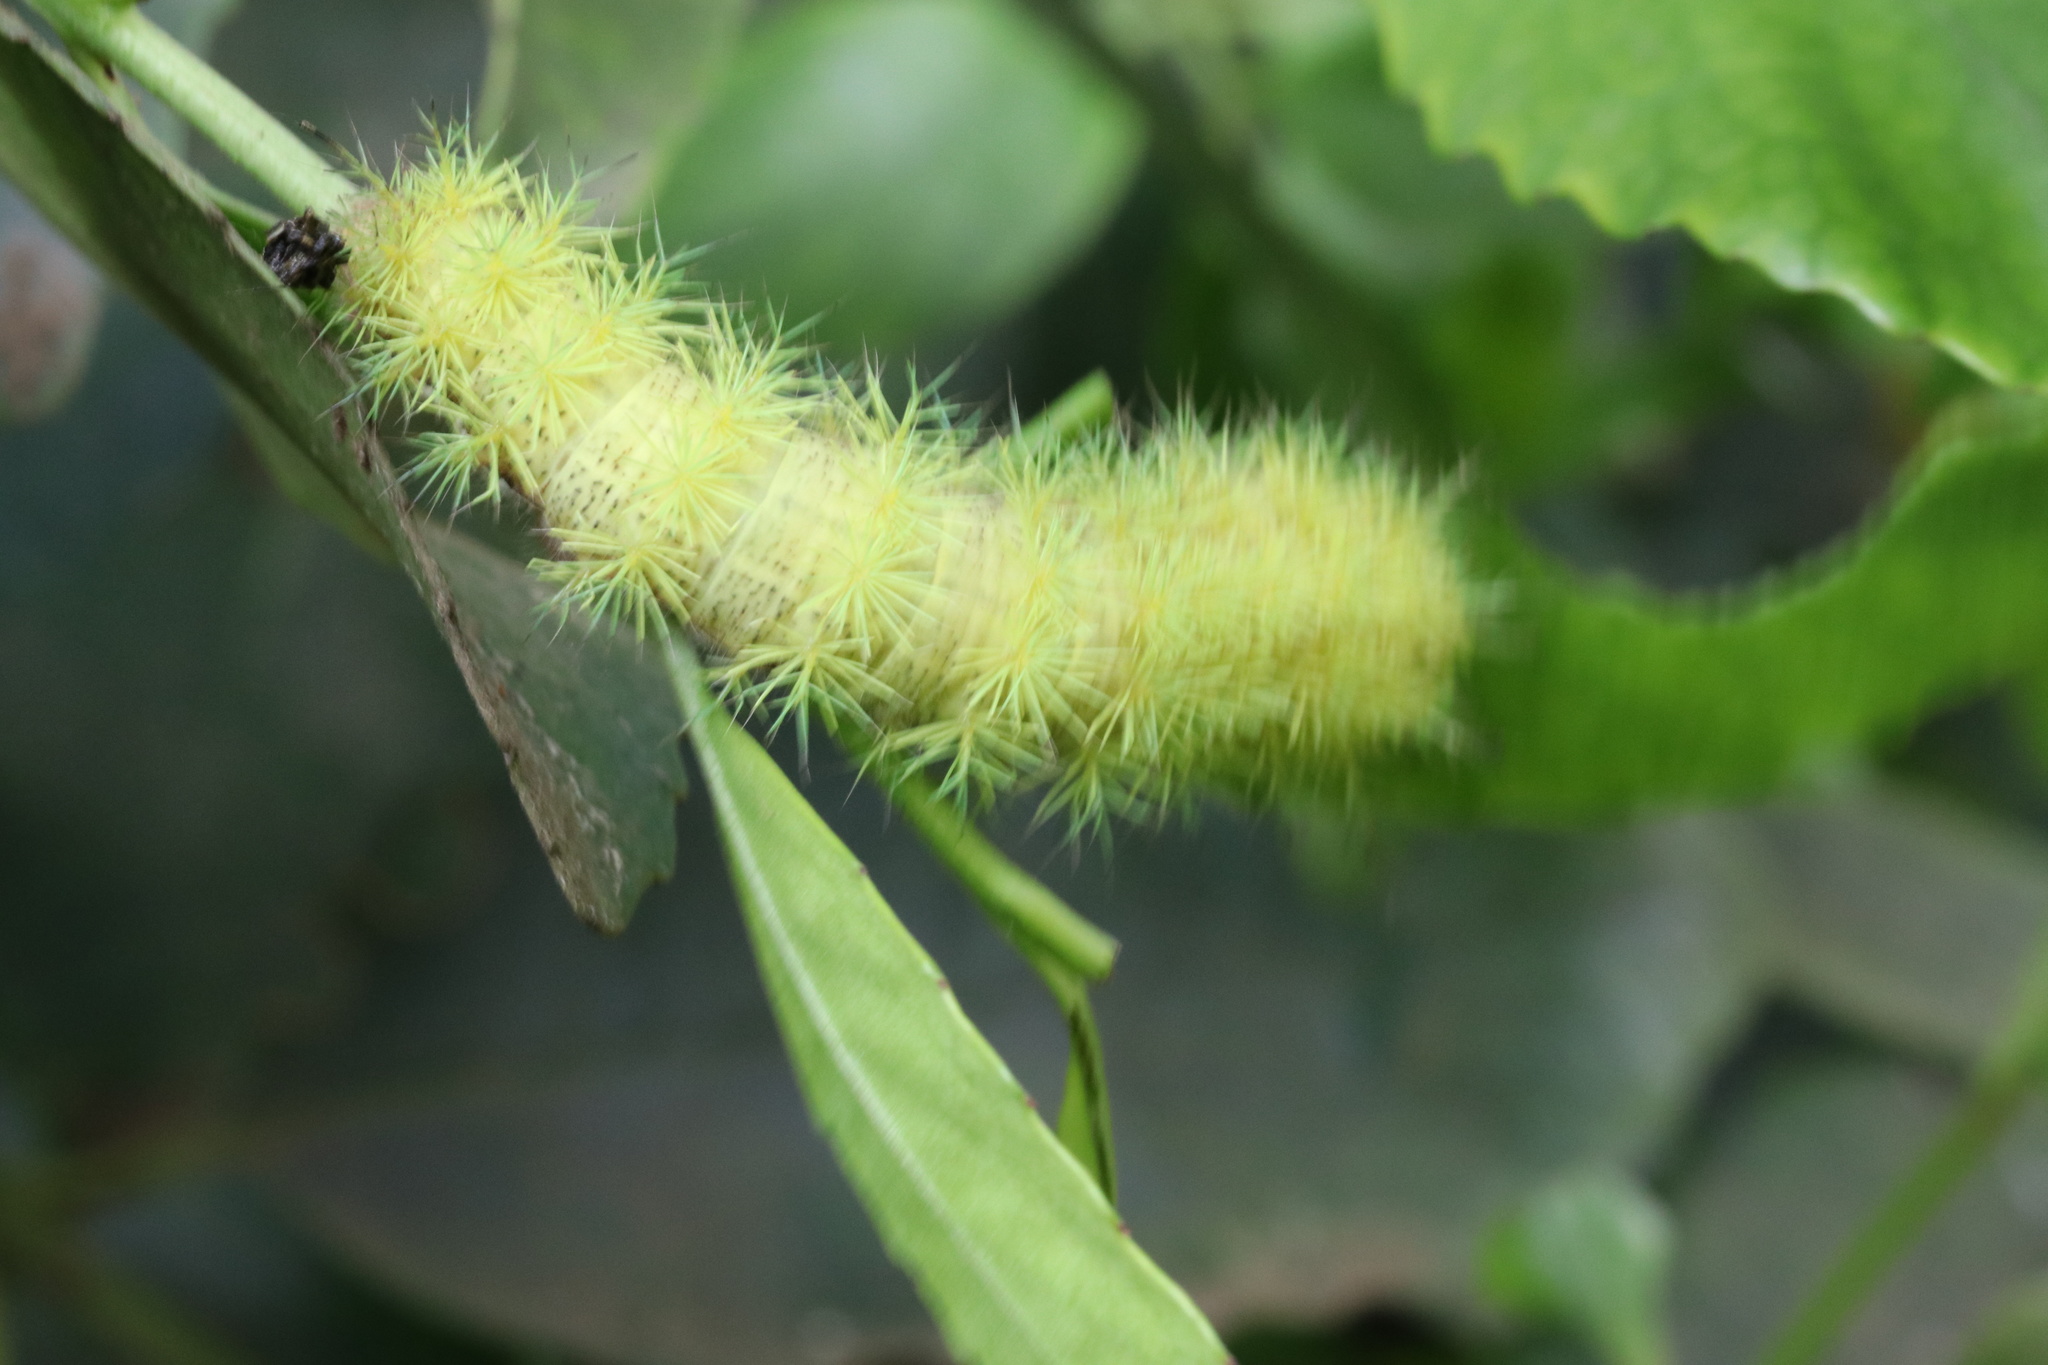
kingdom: Animalia
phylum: Arthropoda
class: Insecta
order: Lepidoptera
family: Saturniidae
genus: Ormiscodes
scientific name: Ormiscodes amphinome
